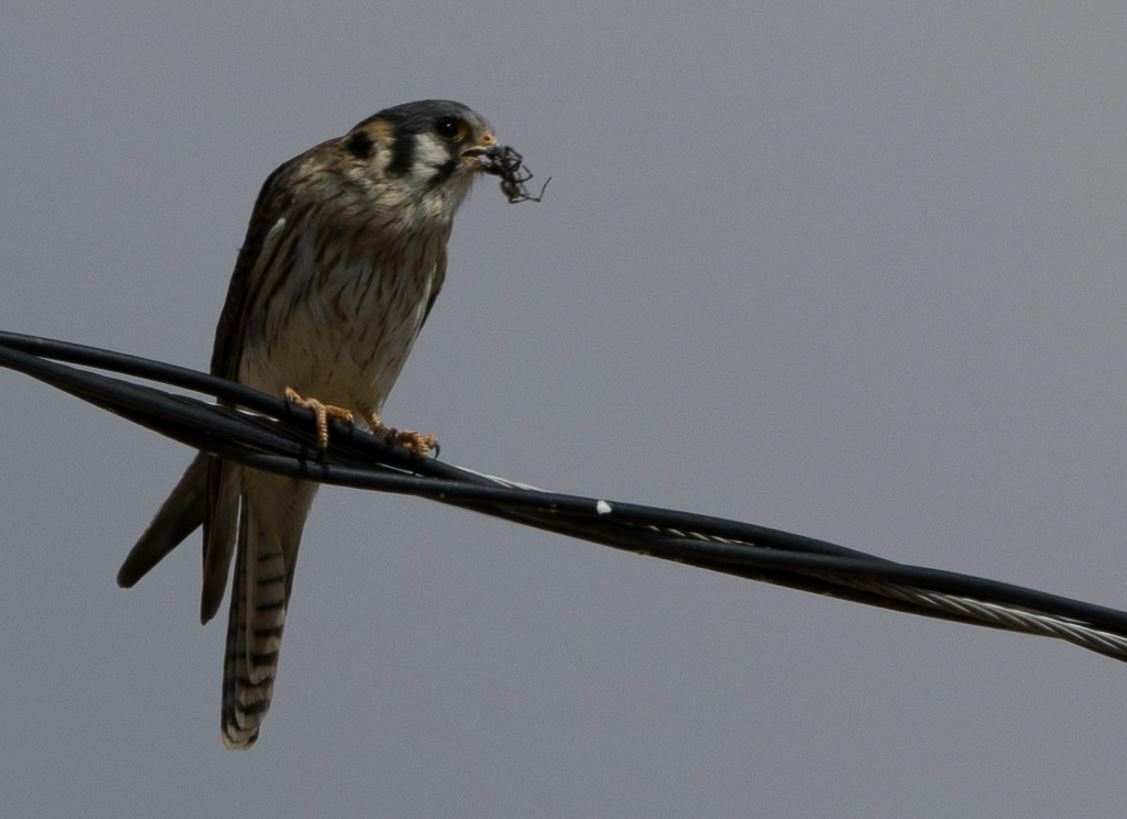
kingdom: Animalia
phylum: Chordata
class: Aves
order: Falconiformes
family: Falconidae
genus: Falco
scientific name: Falco sparverius
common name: American kestrel
